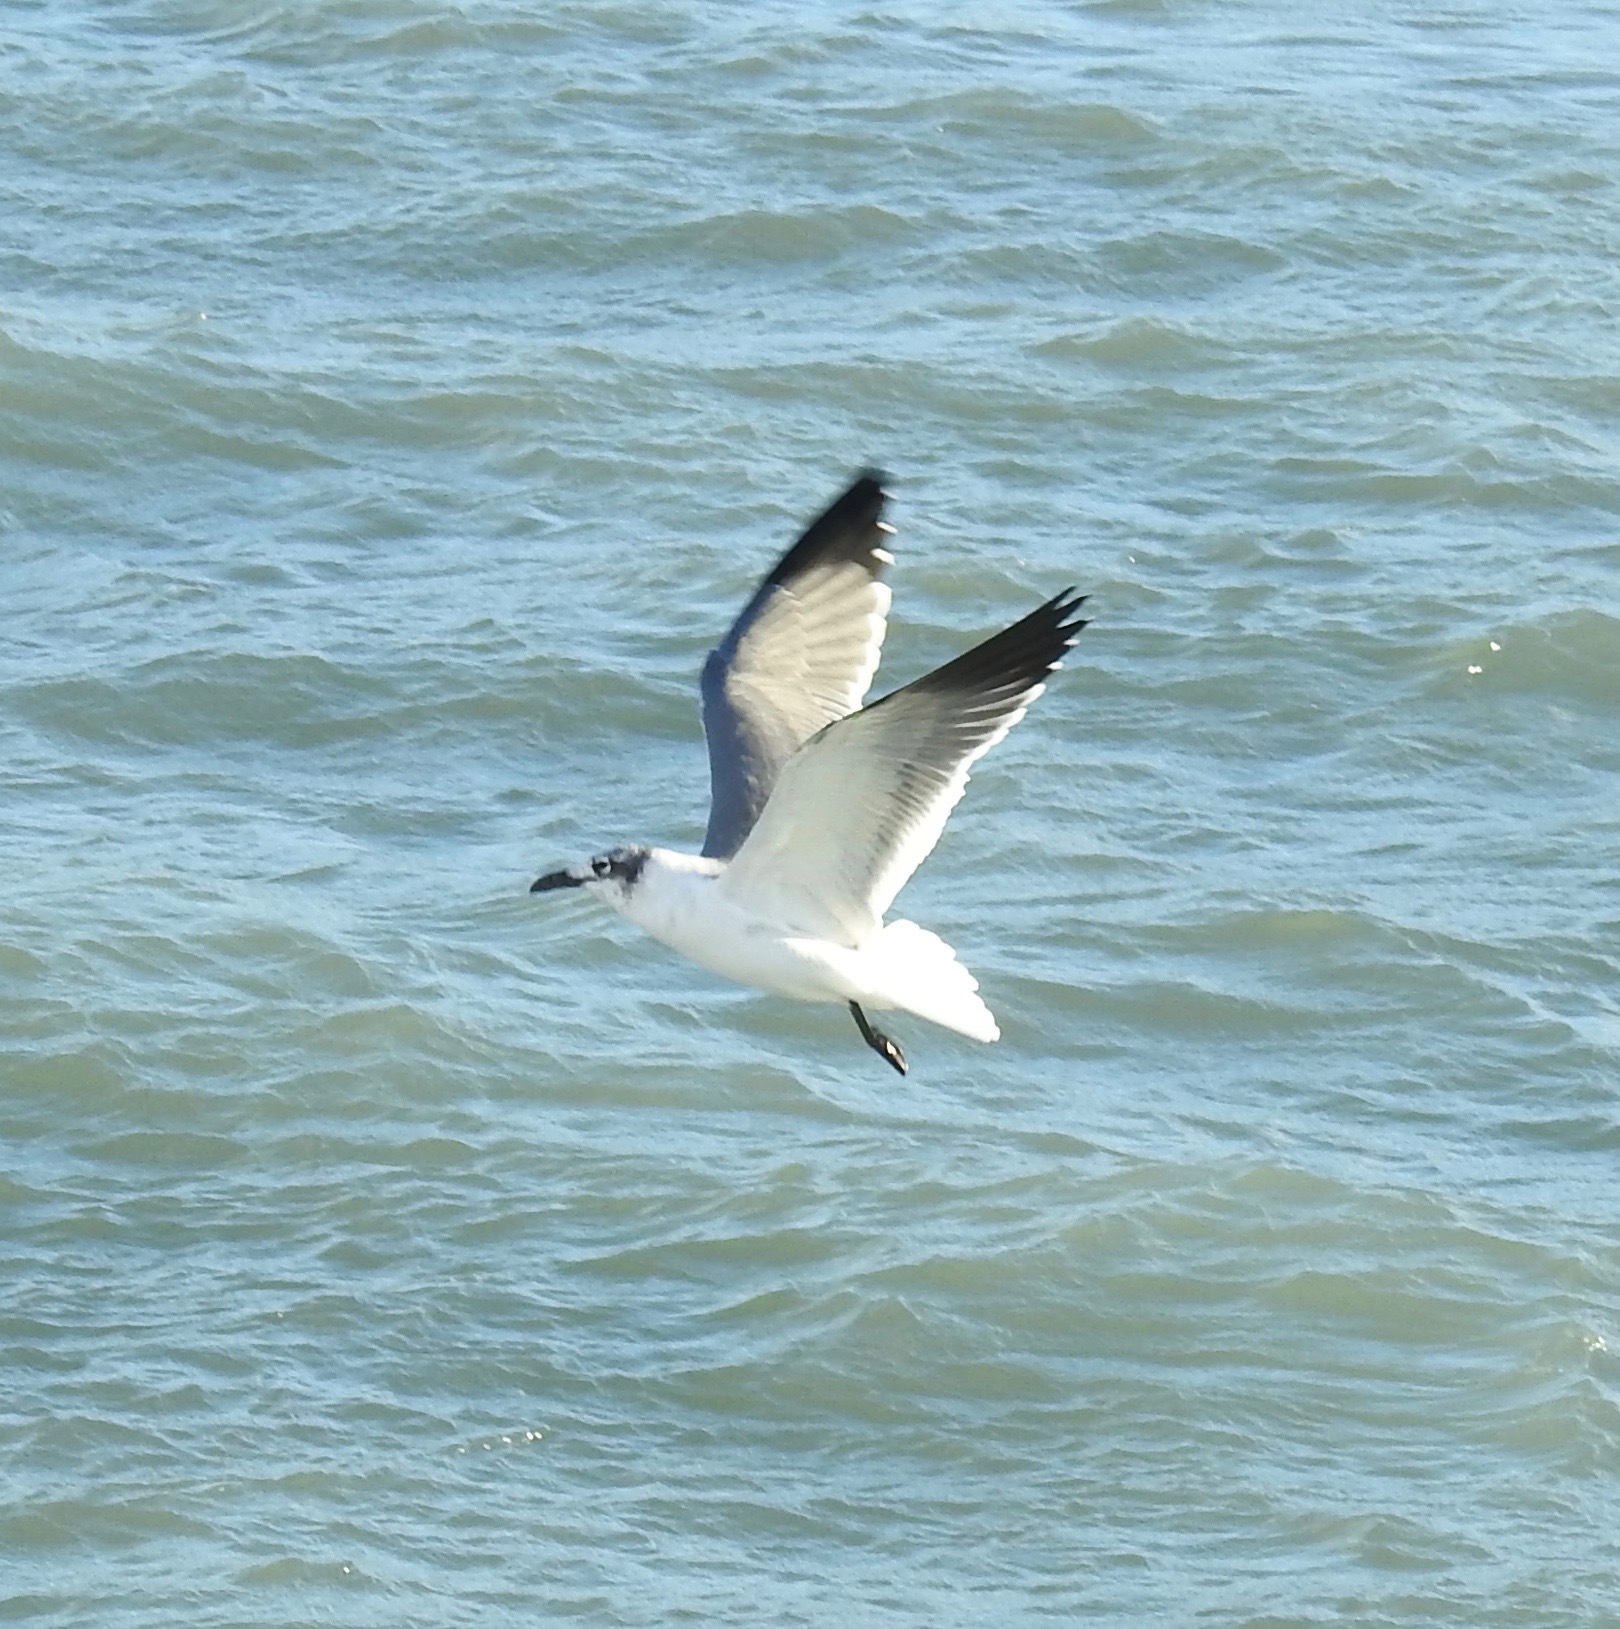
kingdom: Animalia
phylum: Chordata
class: Aves
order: Charadriiformes
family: Laridae
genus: Leucophaeus
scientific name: Leucophaeus atricilla
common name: Laughing gull
